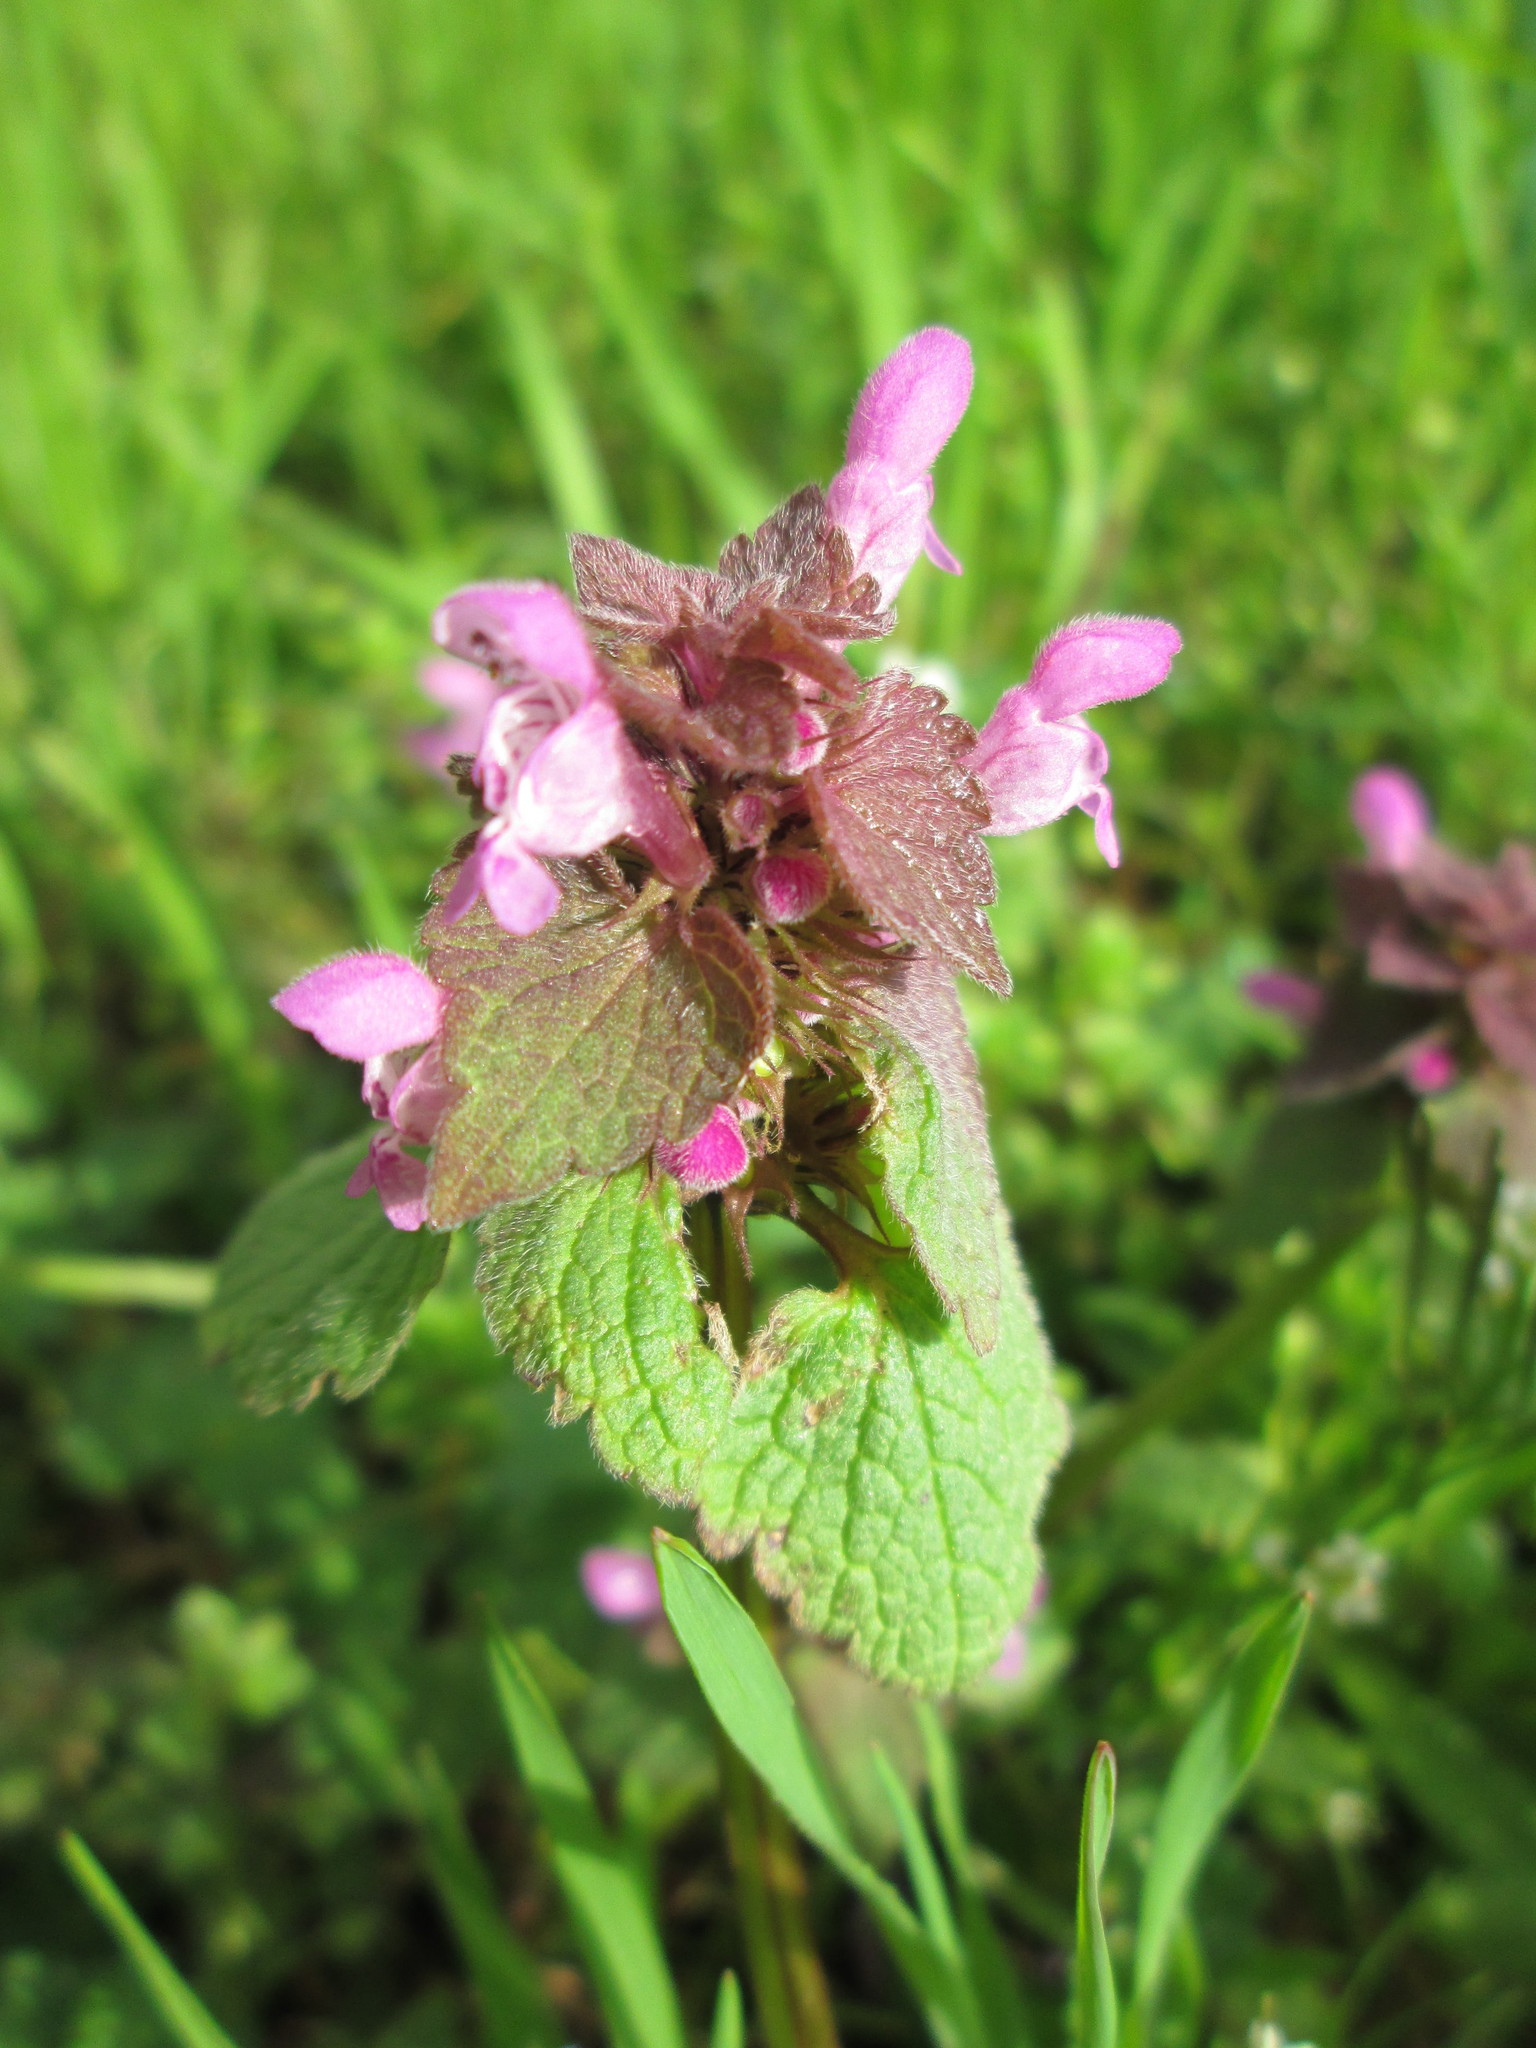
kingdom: Plantae
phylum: Tracheophyta
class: Magnoliopsida
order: Lamiales
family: Lamiaceae
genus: Lamium
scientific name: Lamium purpureum
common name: Red dead-nettle
